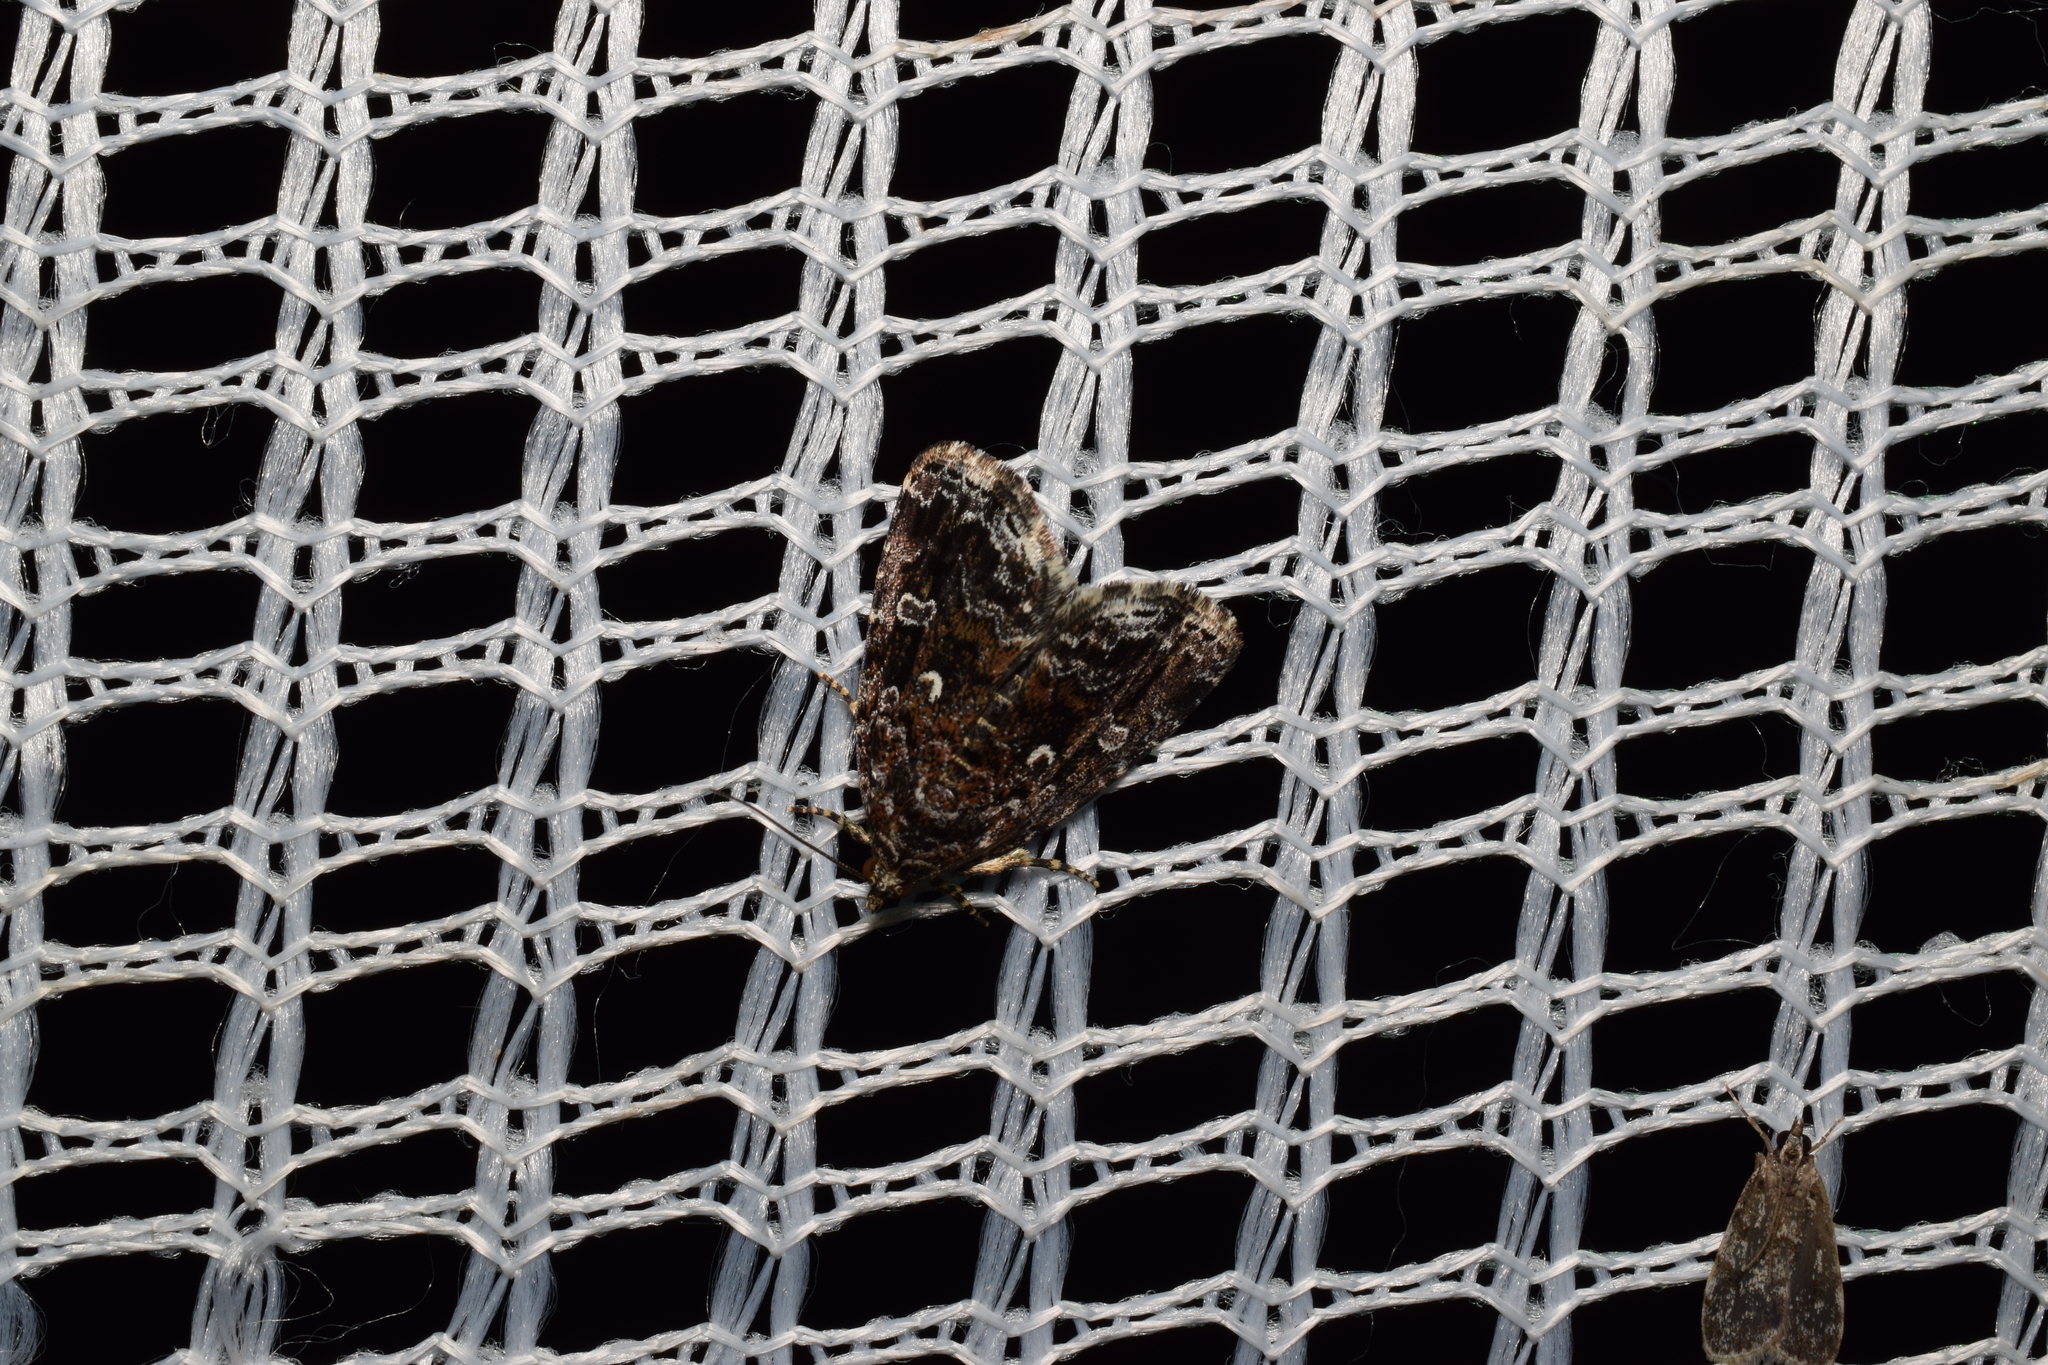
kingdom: Animalia
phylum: Arthropoda
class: Insecta
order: Lepidoptera
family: Noctuidae
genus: Lithacodia
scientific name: Lithacodia distinguenda
